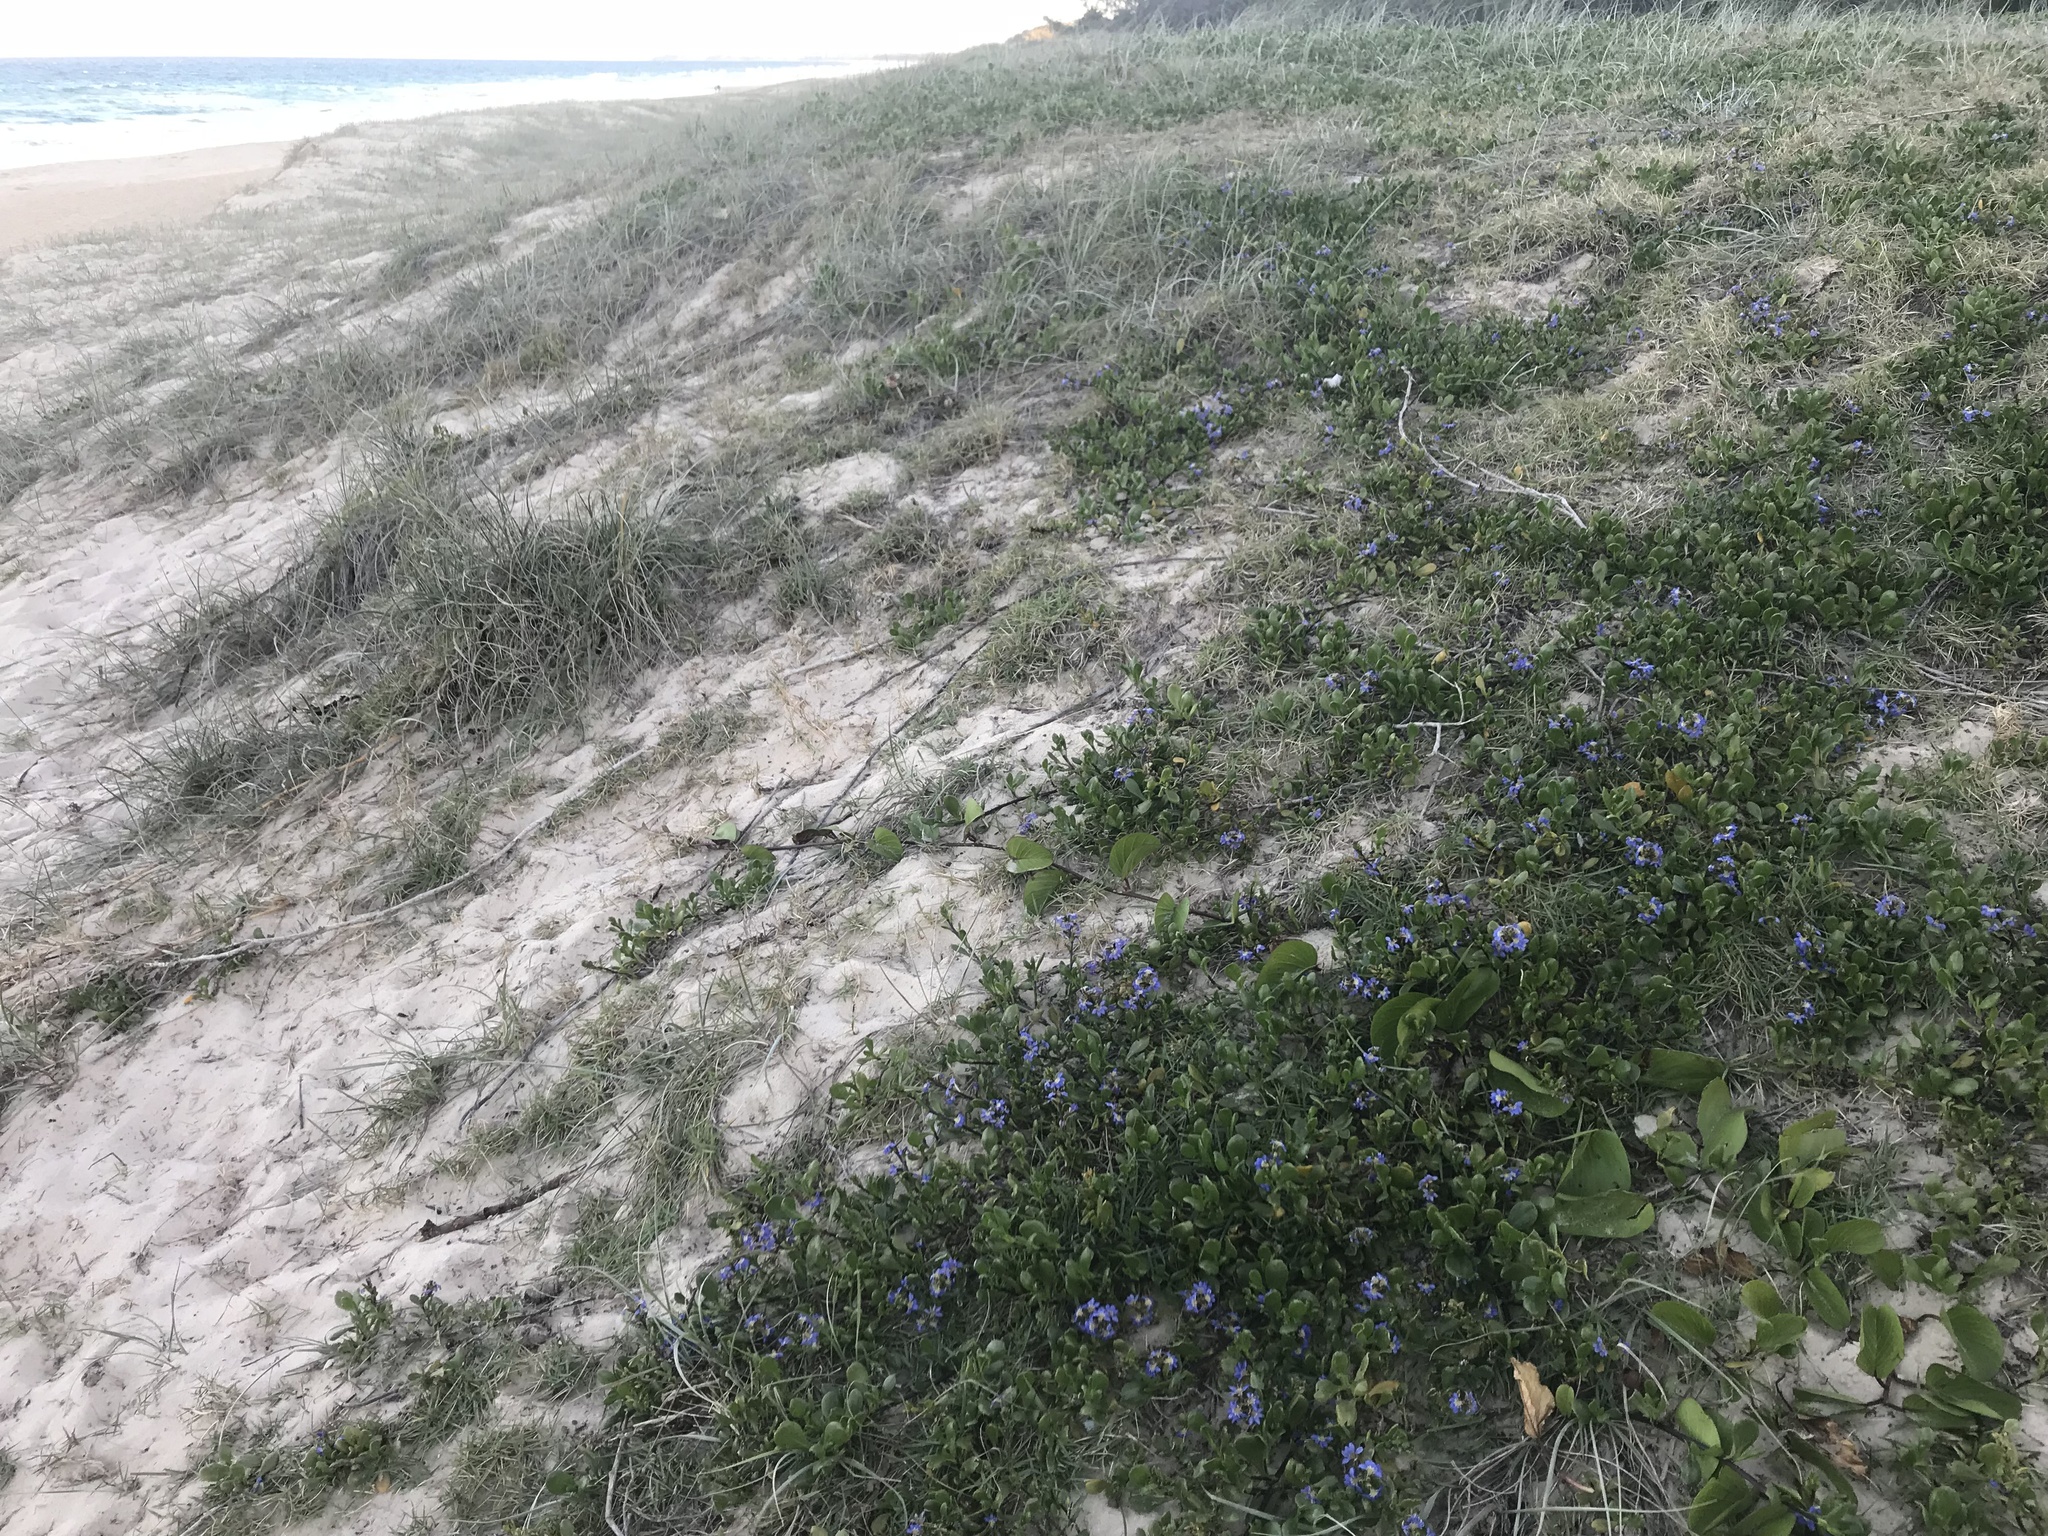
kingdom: Plantae
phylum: Tracheophyta
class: Magnoliopsida
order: Asterales
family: Goodeniaceae
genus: Scaevola
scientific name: Scaevola calendulacea
